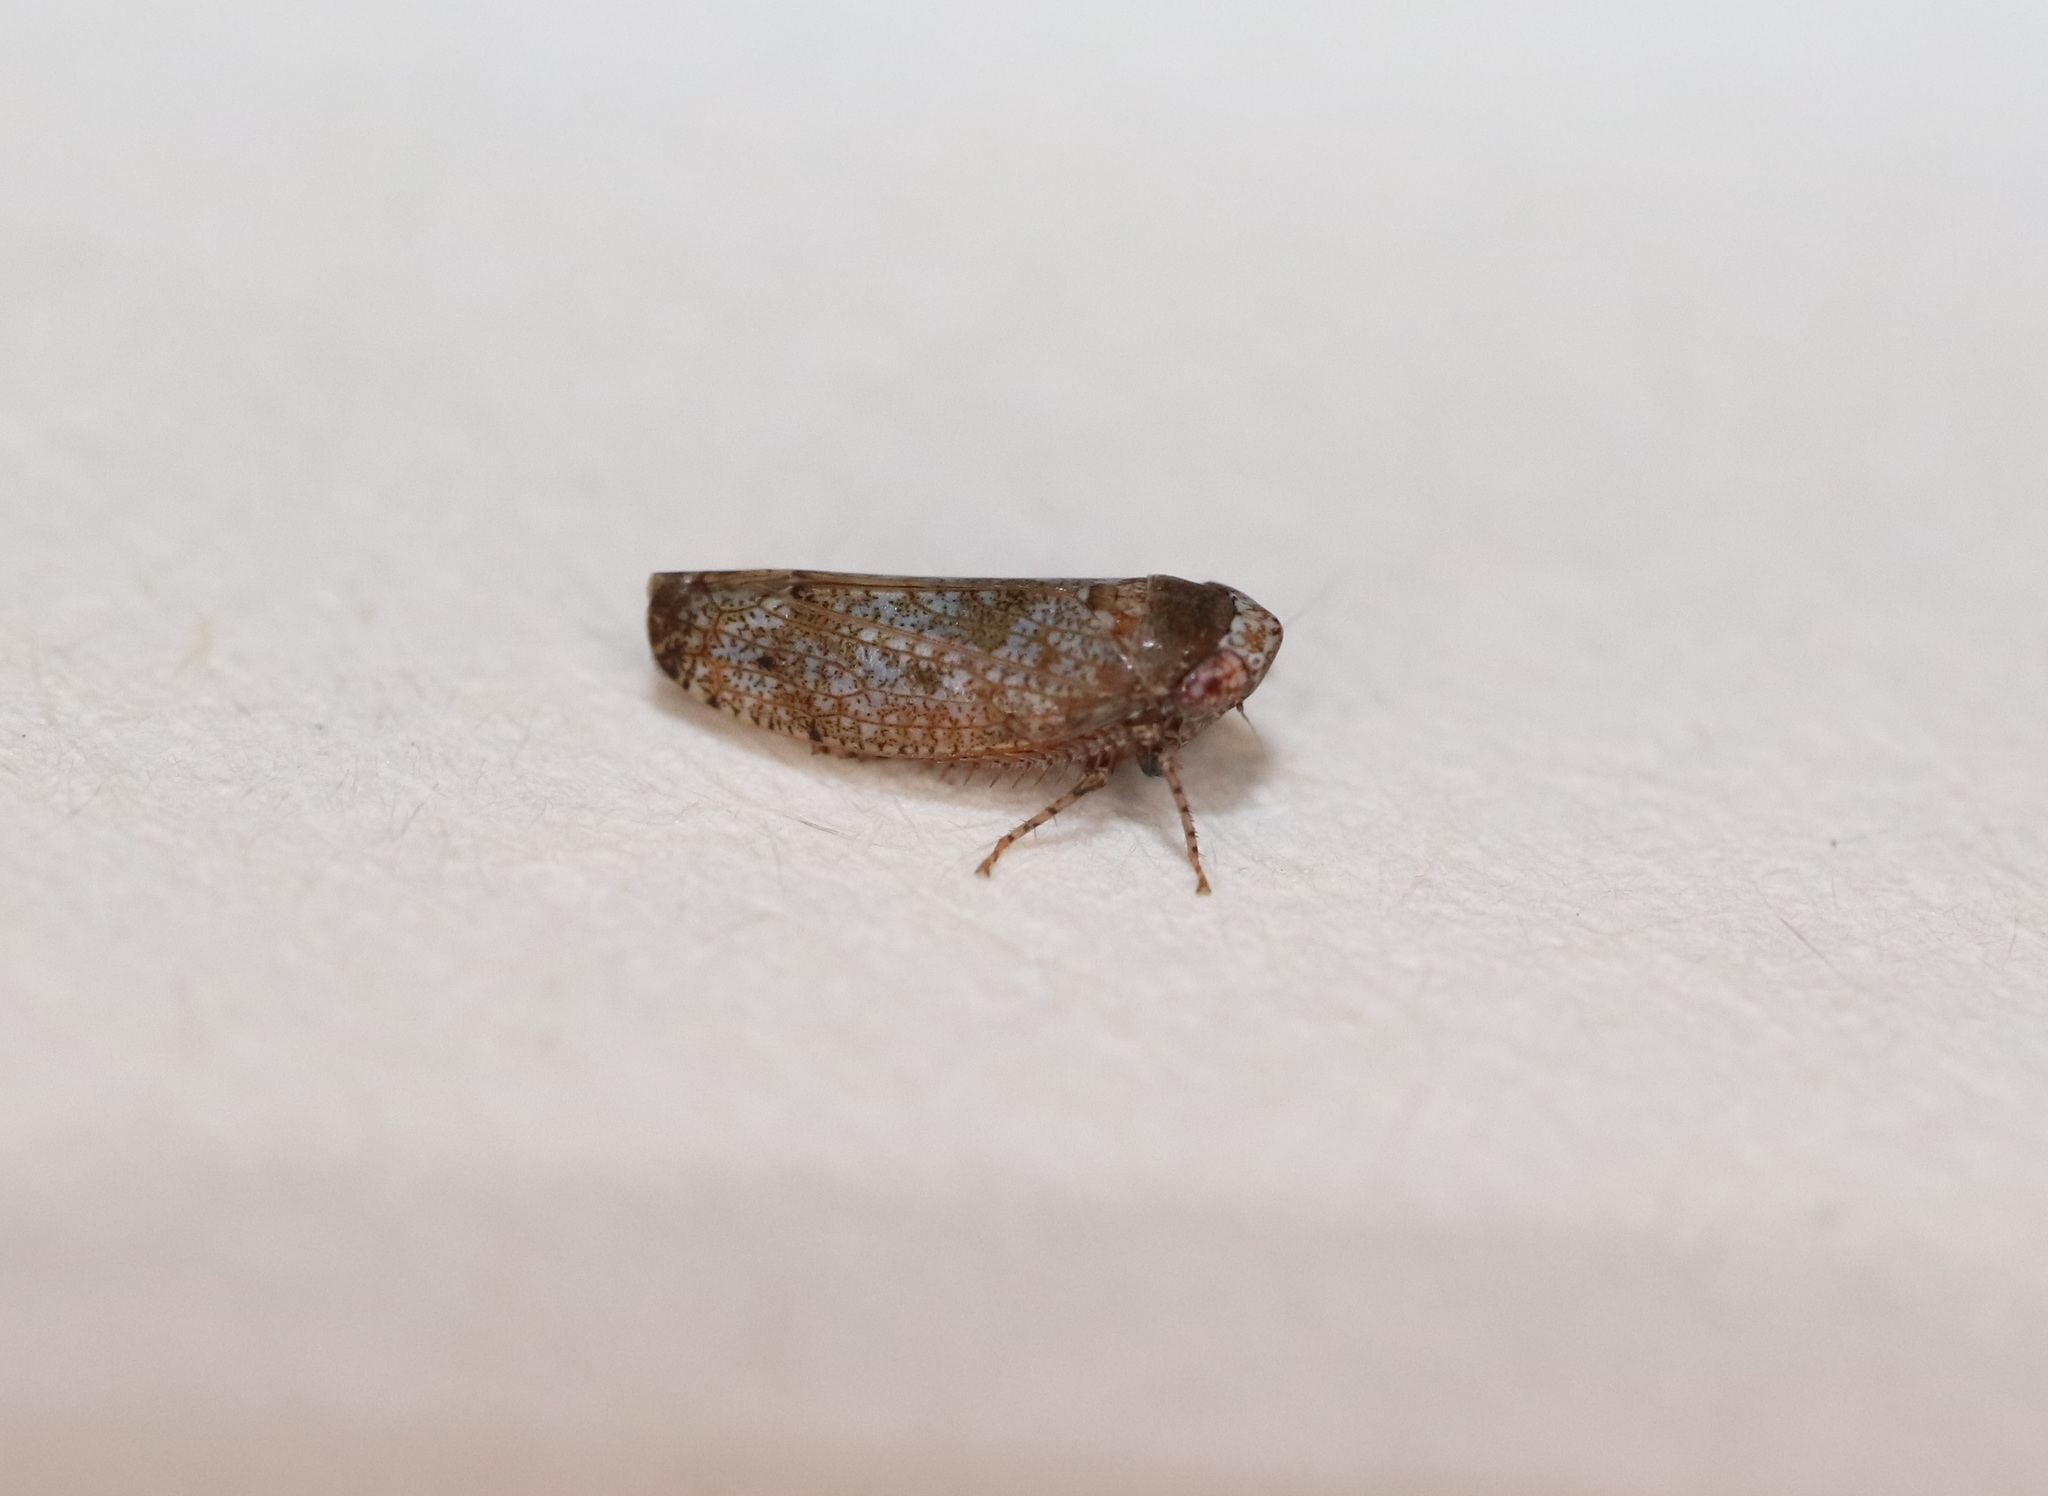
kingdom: Animalia
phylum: Arthropoda
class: Insecta
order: Hemiptera
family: Cicadellidae
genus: Orientus
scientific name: Orientus ishidae
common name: Japanese leafhopper
